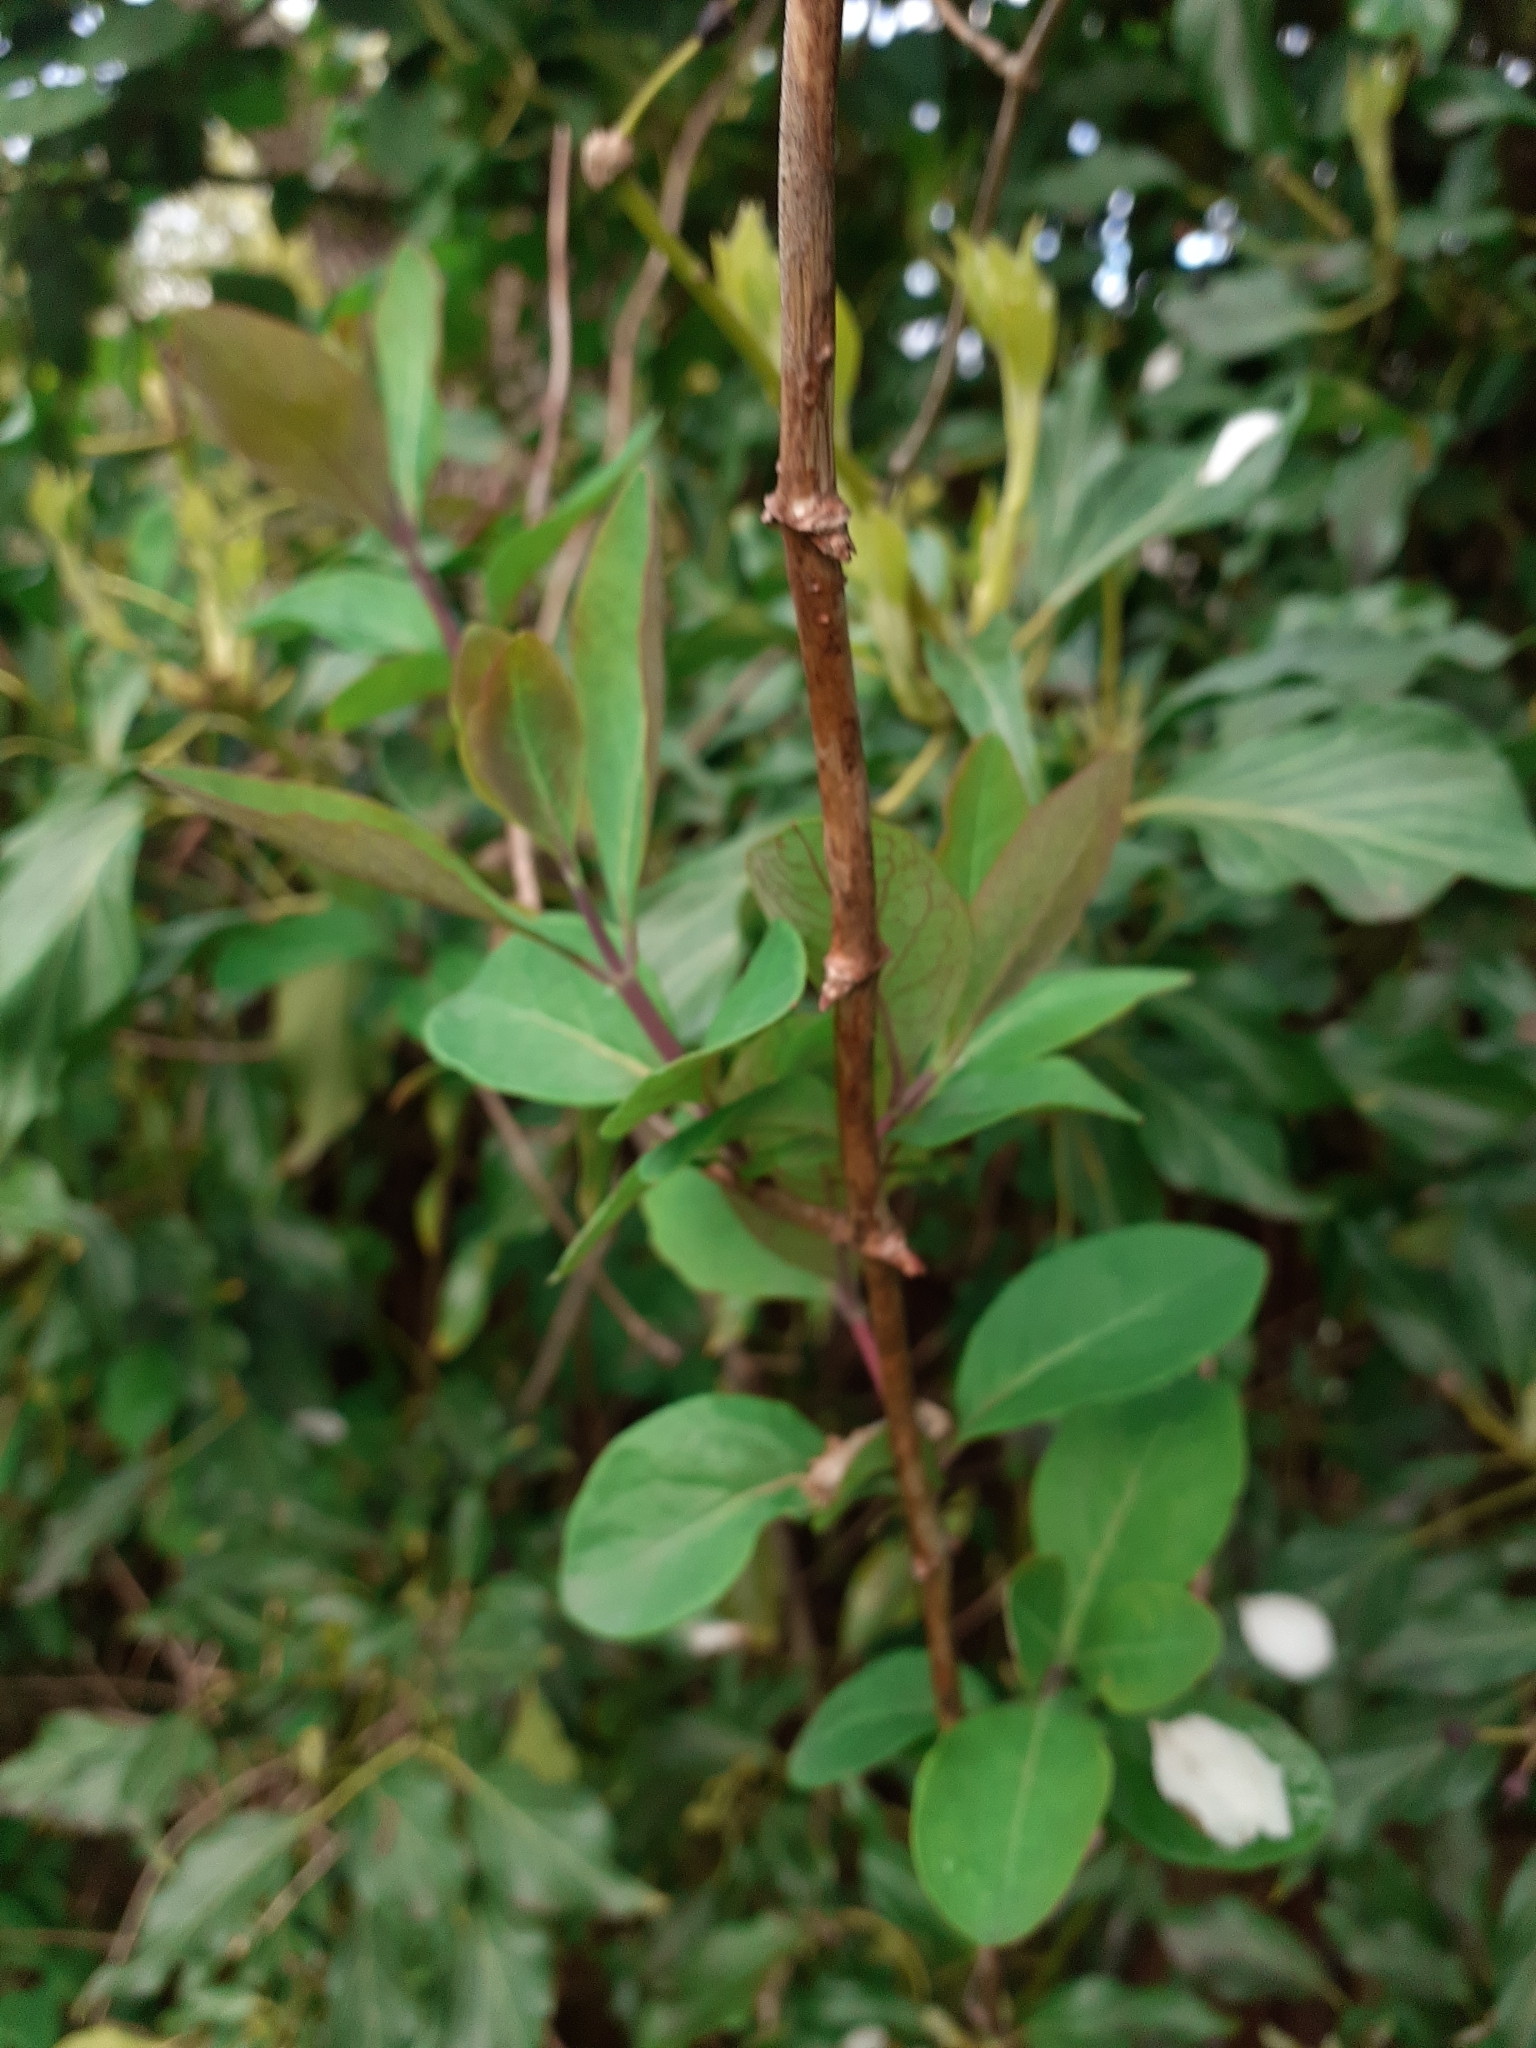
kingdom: Plantae
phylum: Tracheophyta
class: Magnoliopsida
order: Dipsacales
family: Caprifoliaceae
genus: Lonicera
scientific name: Lonicera periclymenum
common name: European honeysuckle
